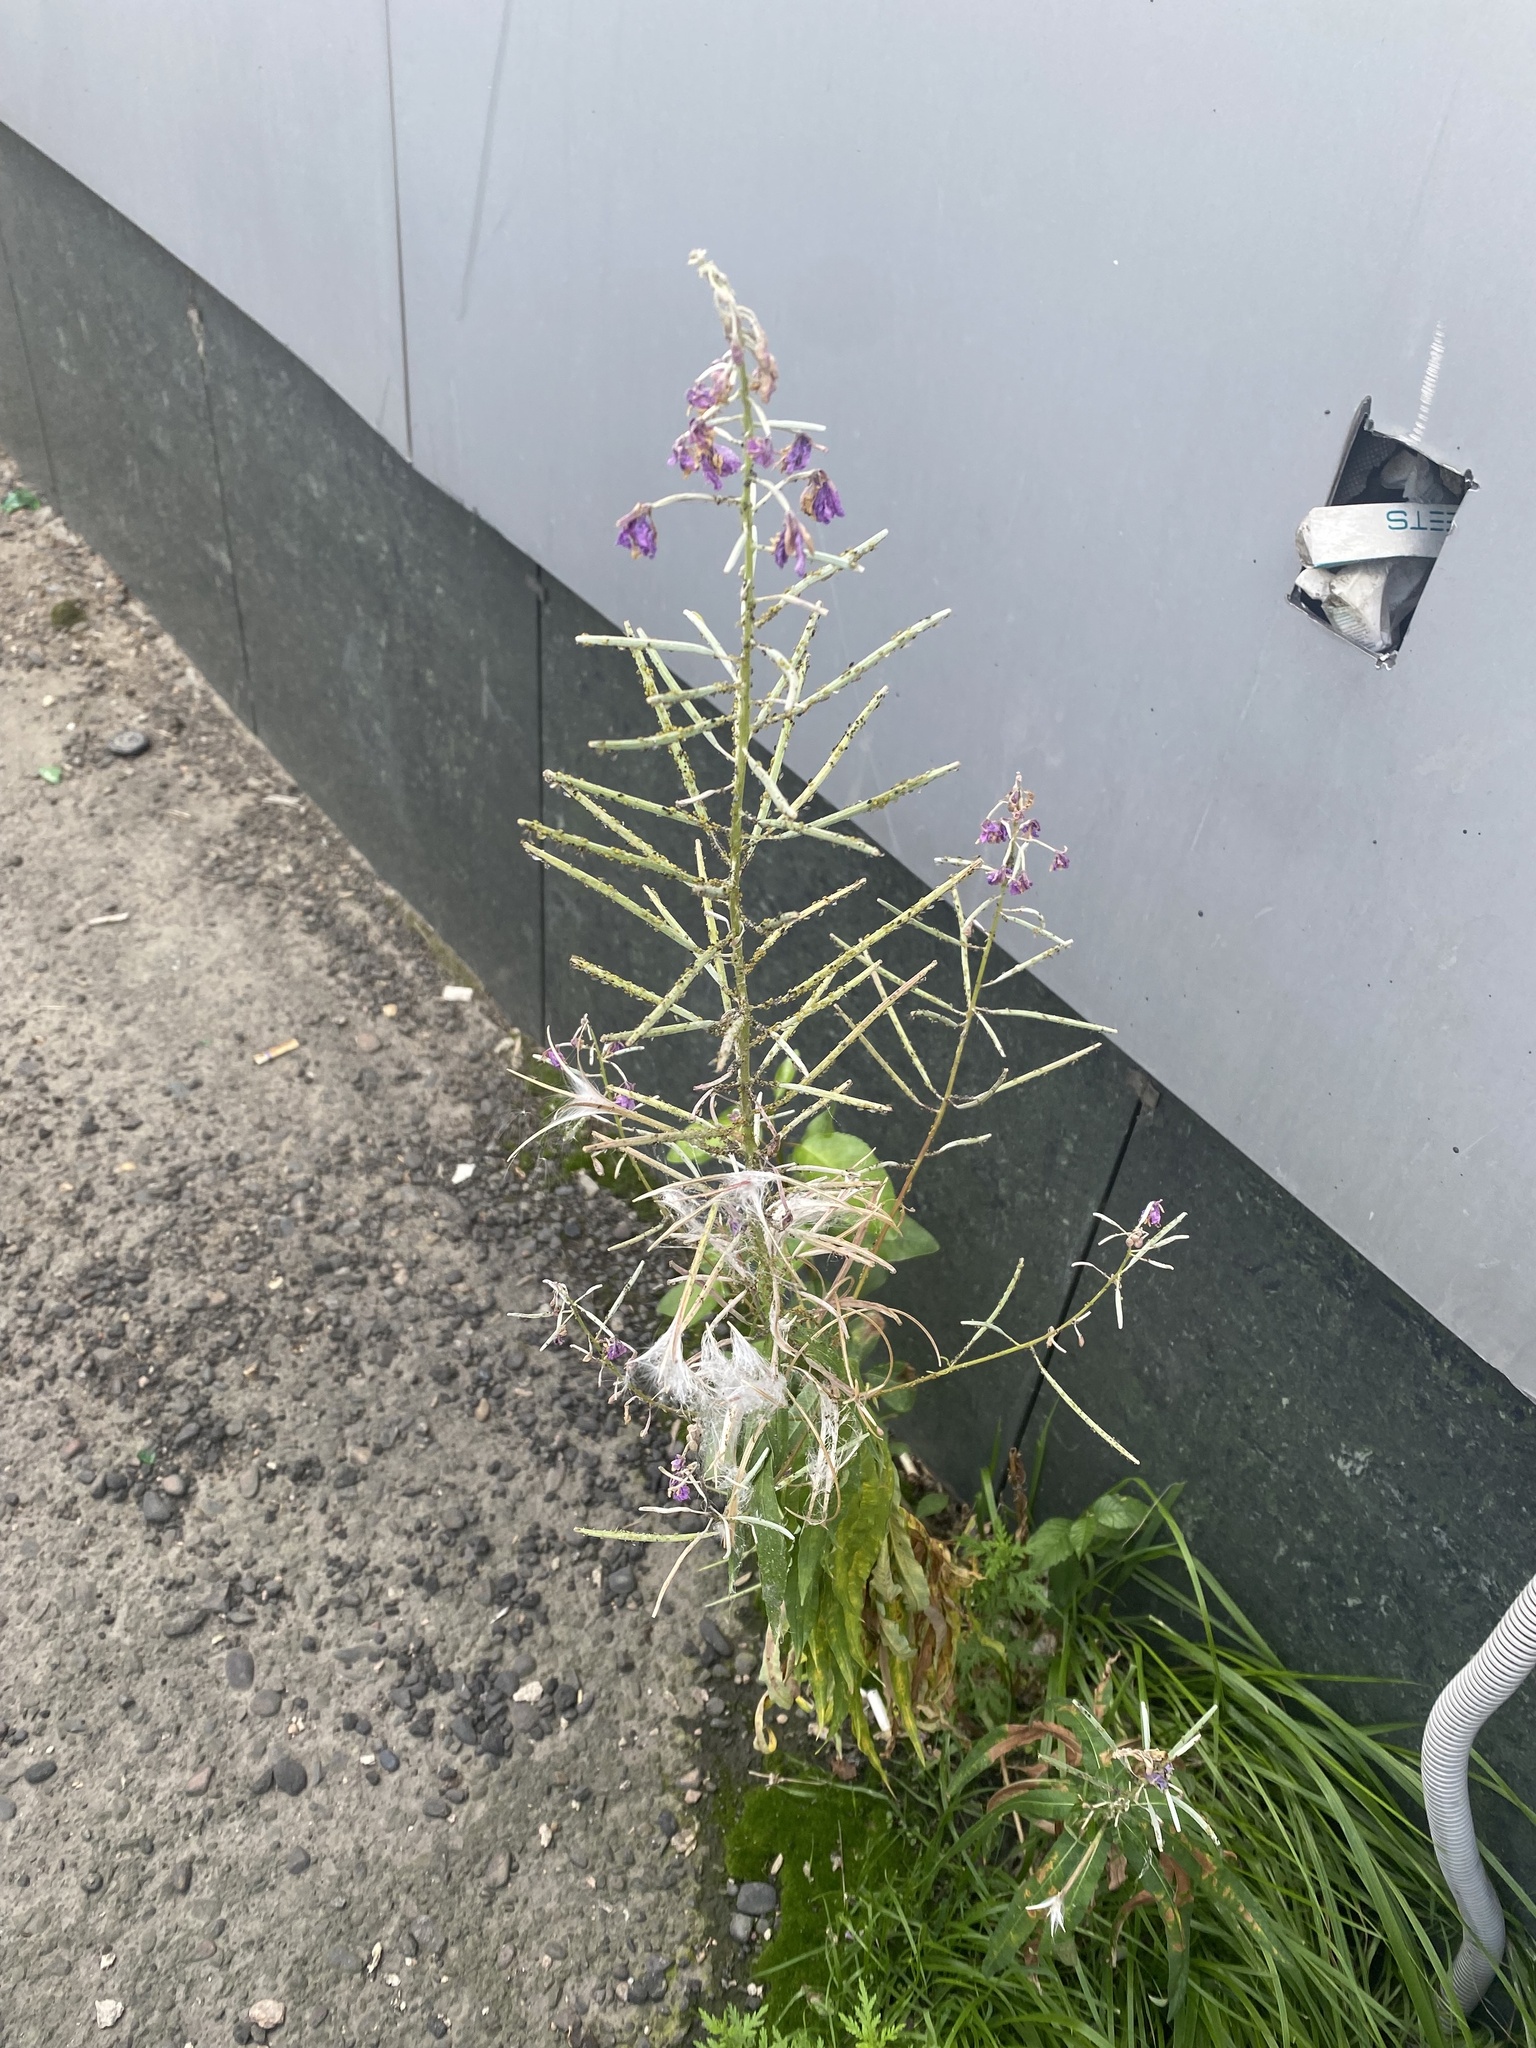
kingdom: Plantae
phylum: Tracheophyta
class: Magnoliopsida
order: Myrtales
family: Onagraceae
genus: Chamaenerion
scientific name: Chamaenerion angustifolium
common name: Fireweed
